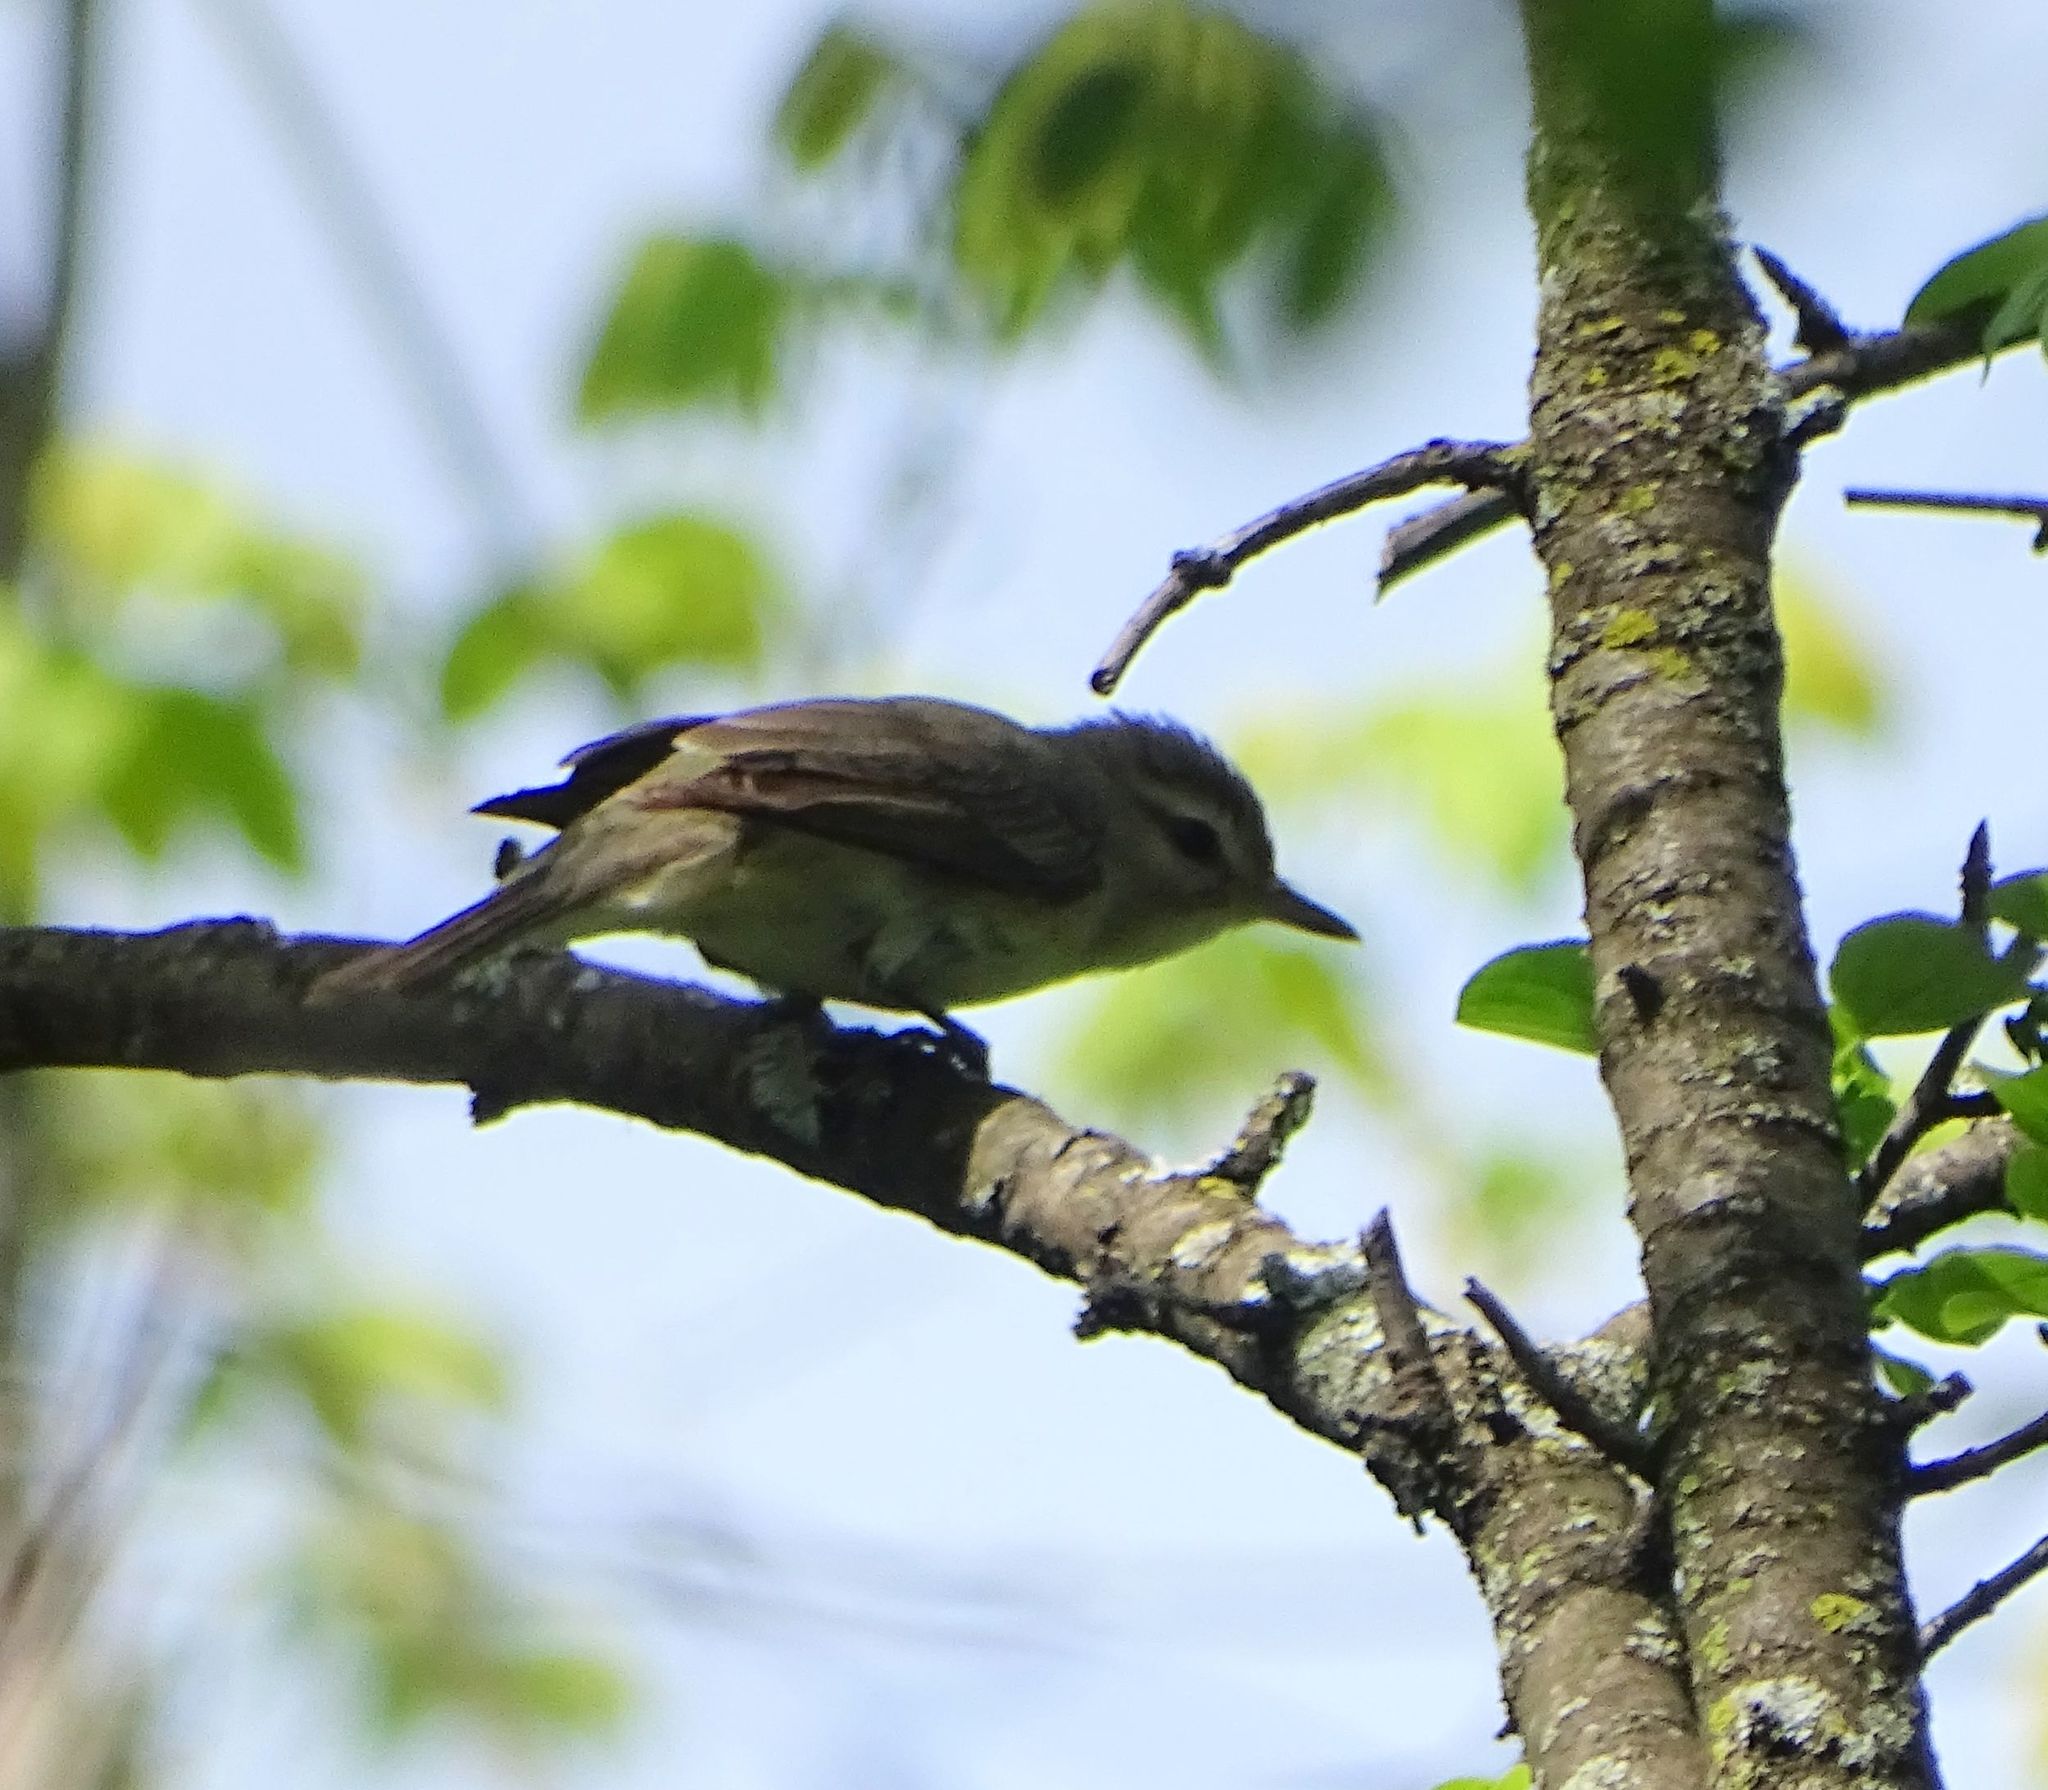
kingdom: Animalia
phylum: Chordata
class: Aves
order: Passeriformes
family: Vireonidae
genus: Vireo
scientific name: Vireo gilvus
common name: Warbling vireo
